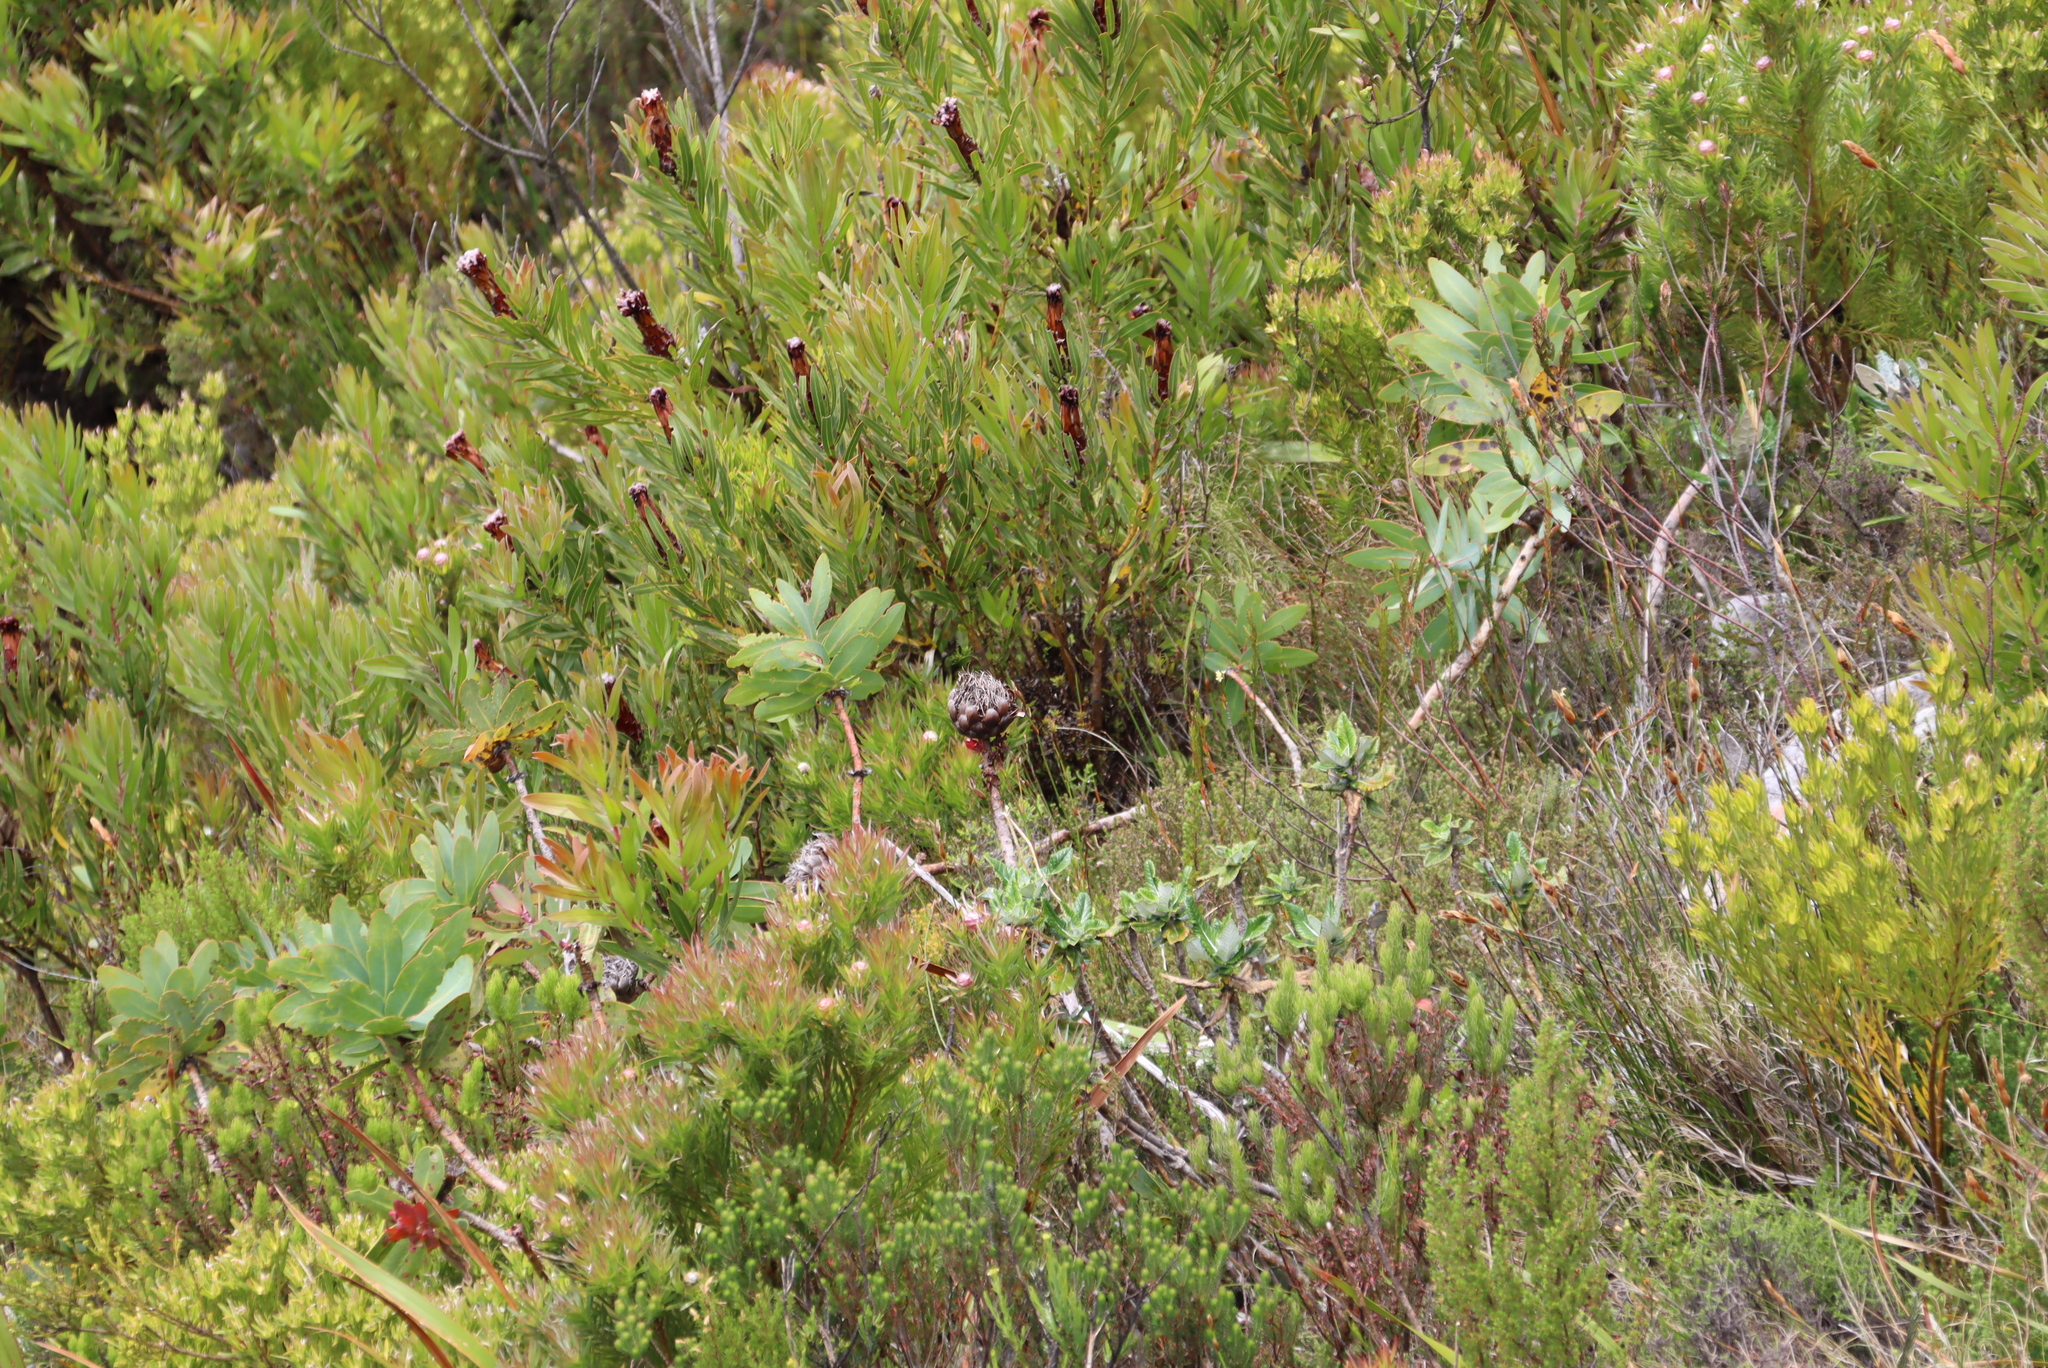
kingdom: Plantae
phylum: Tracheophyta
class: Magnoliopsida
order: Proteales
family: Proteaceae
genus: Protea
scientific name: Protea nitida
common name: Tree protea
